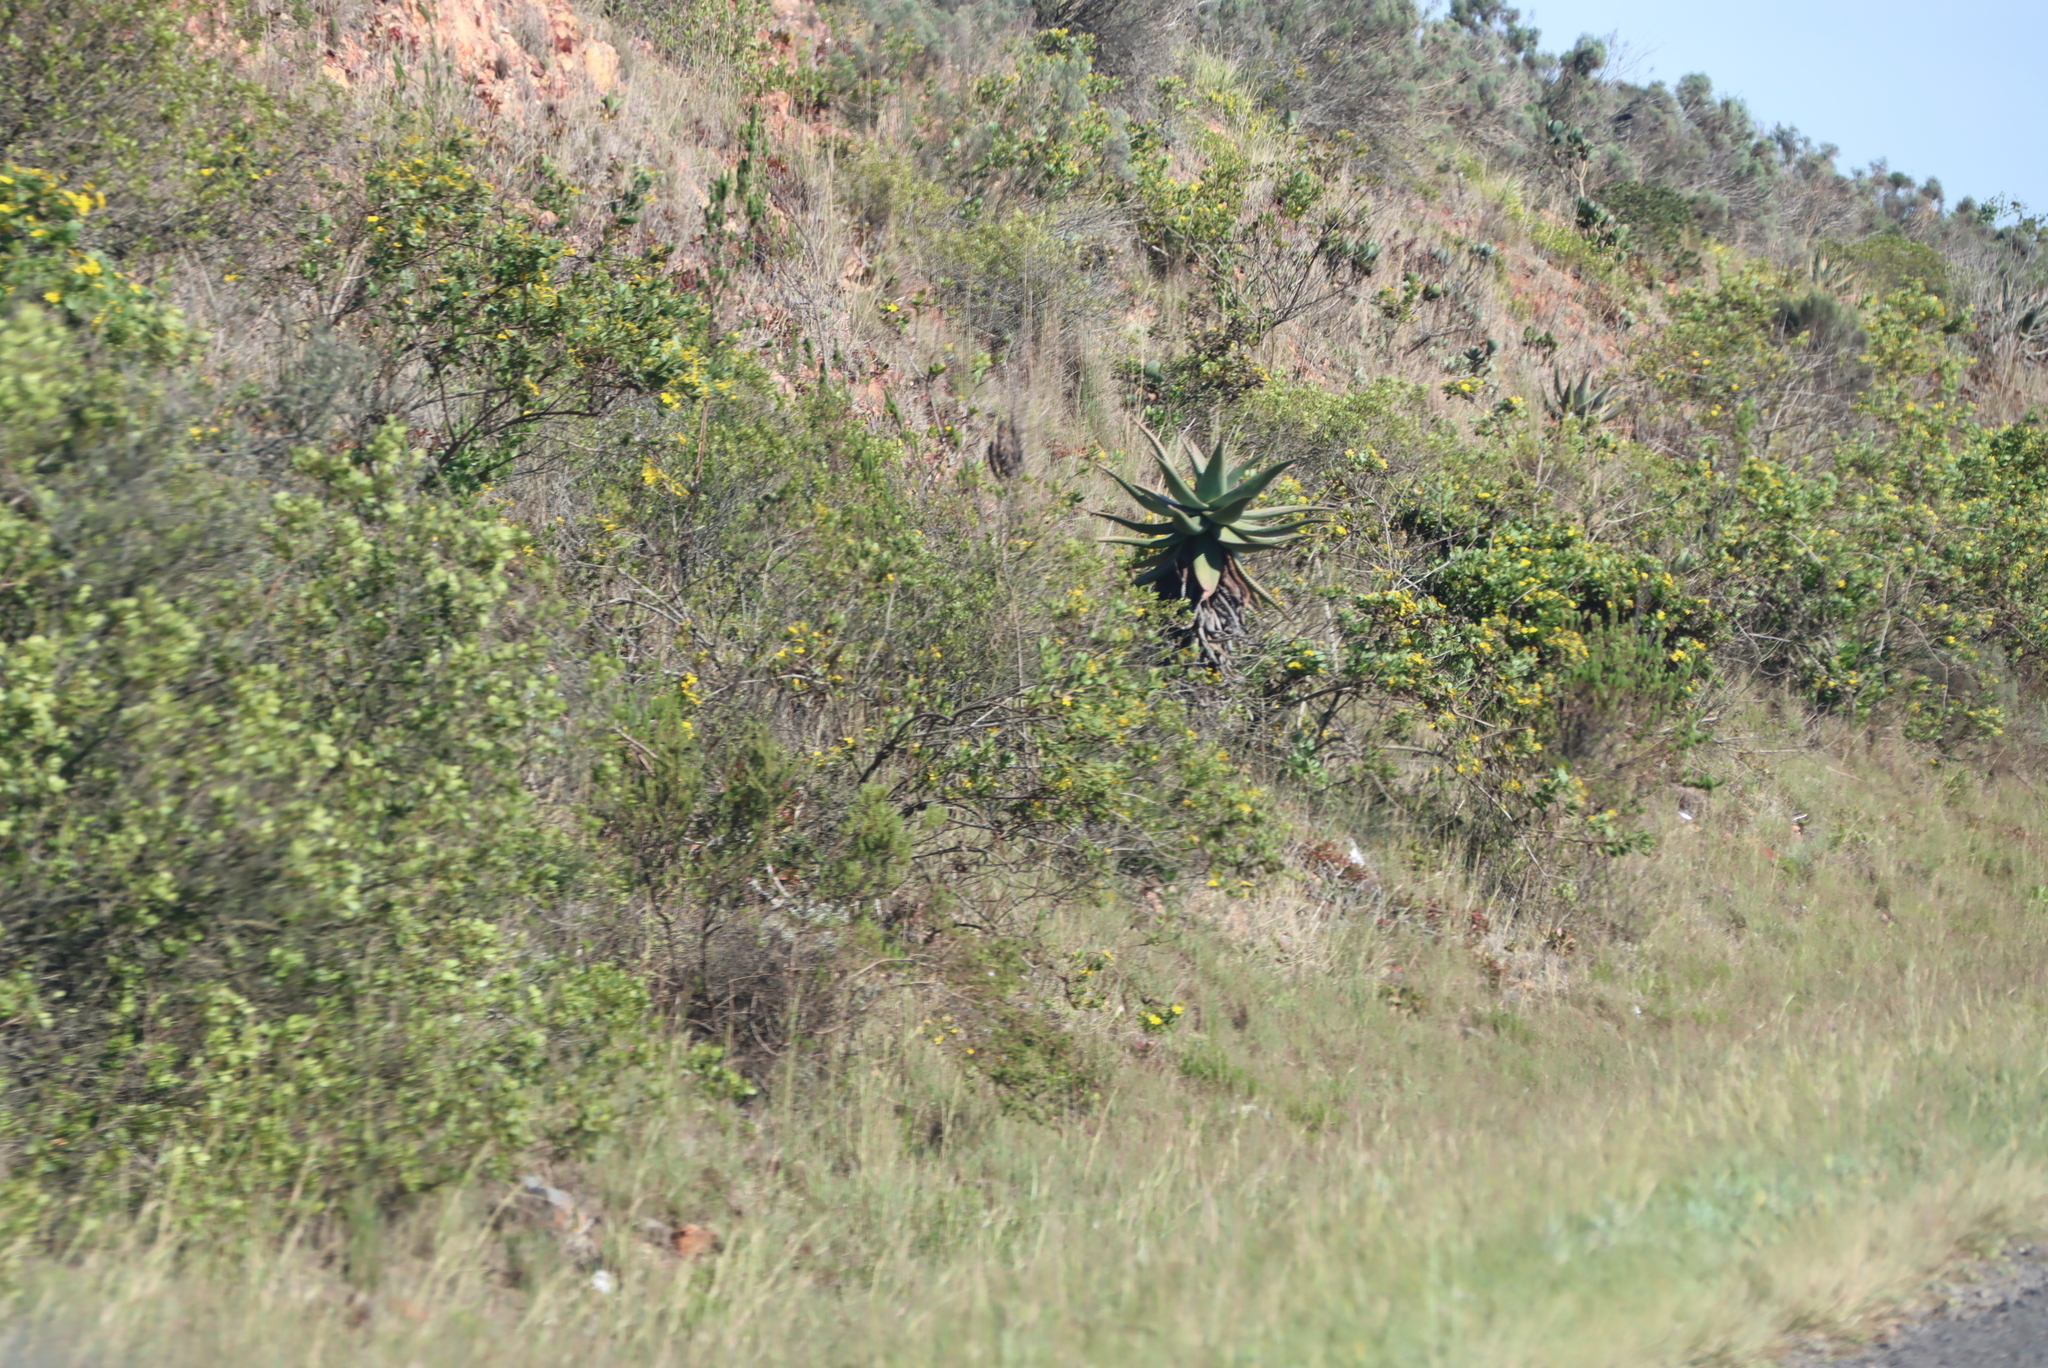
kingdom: Plantae
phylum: Tracheophyta
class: Liliopsida
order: Asparagales
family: Asphodelaceae
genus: Aloe
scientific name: Aloe ferox
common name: Bitter aloe
